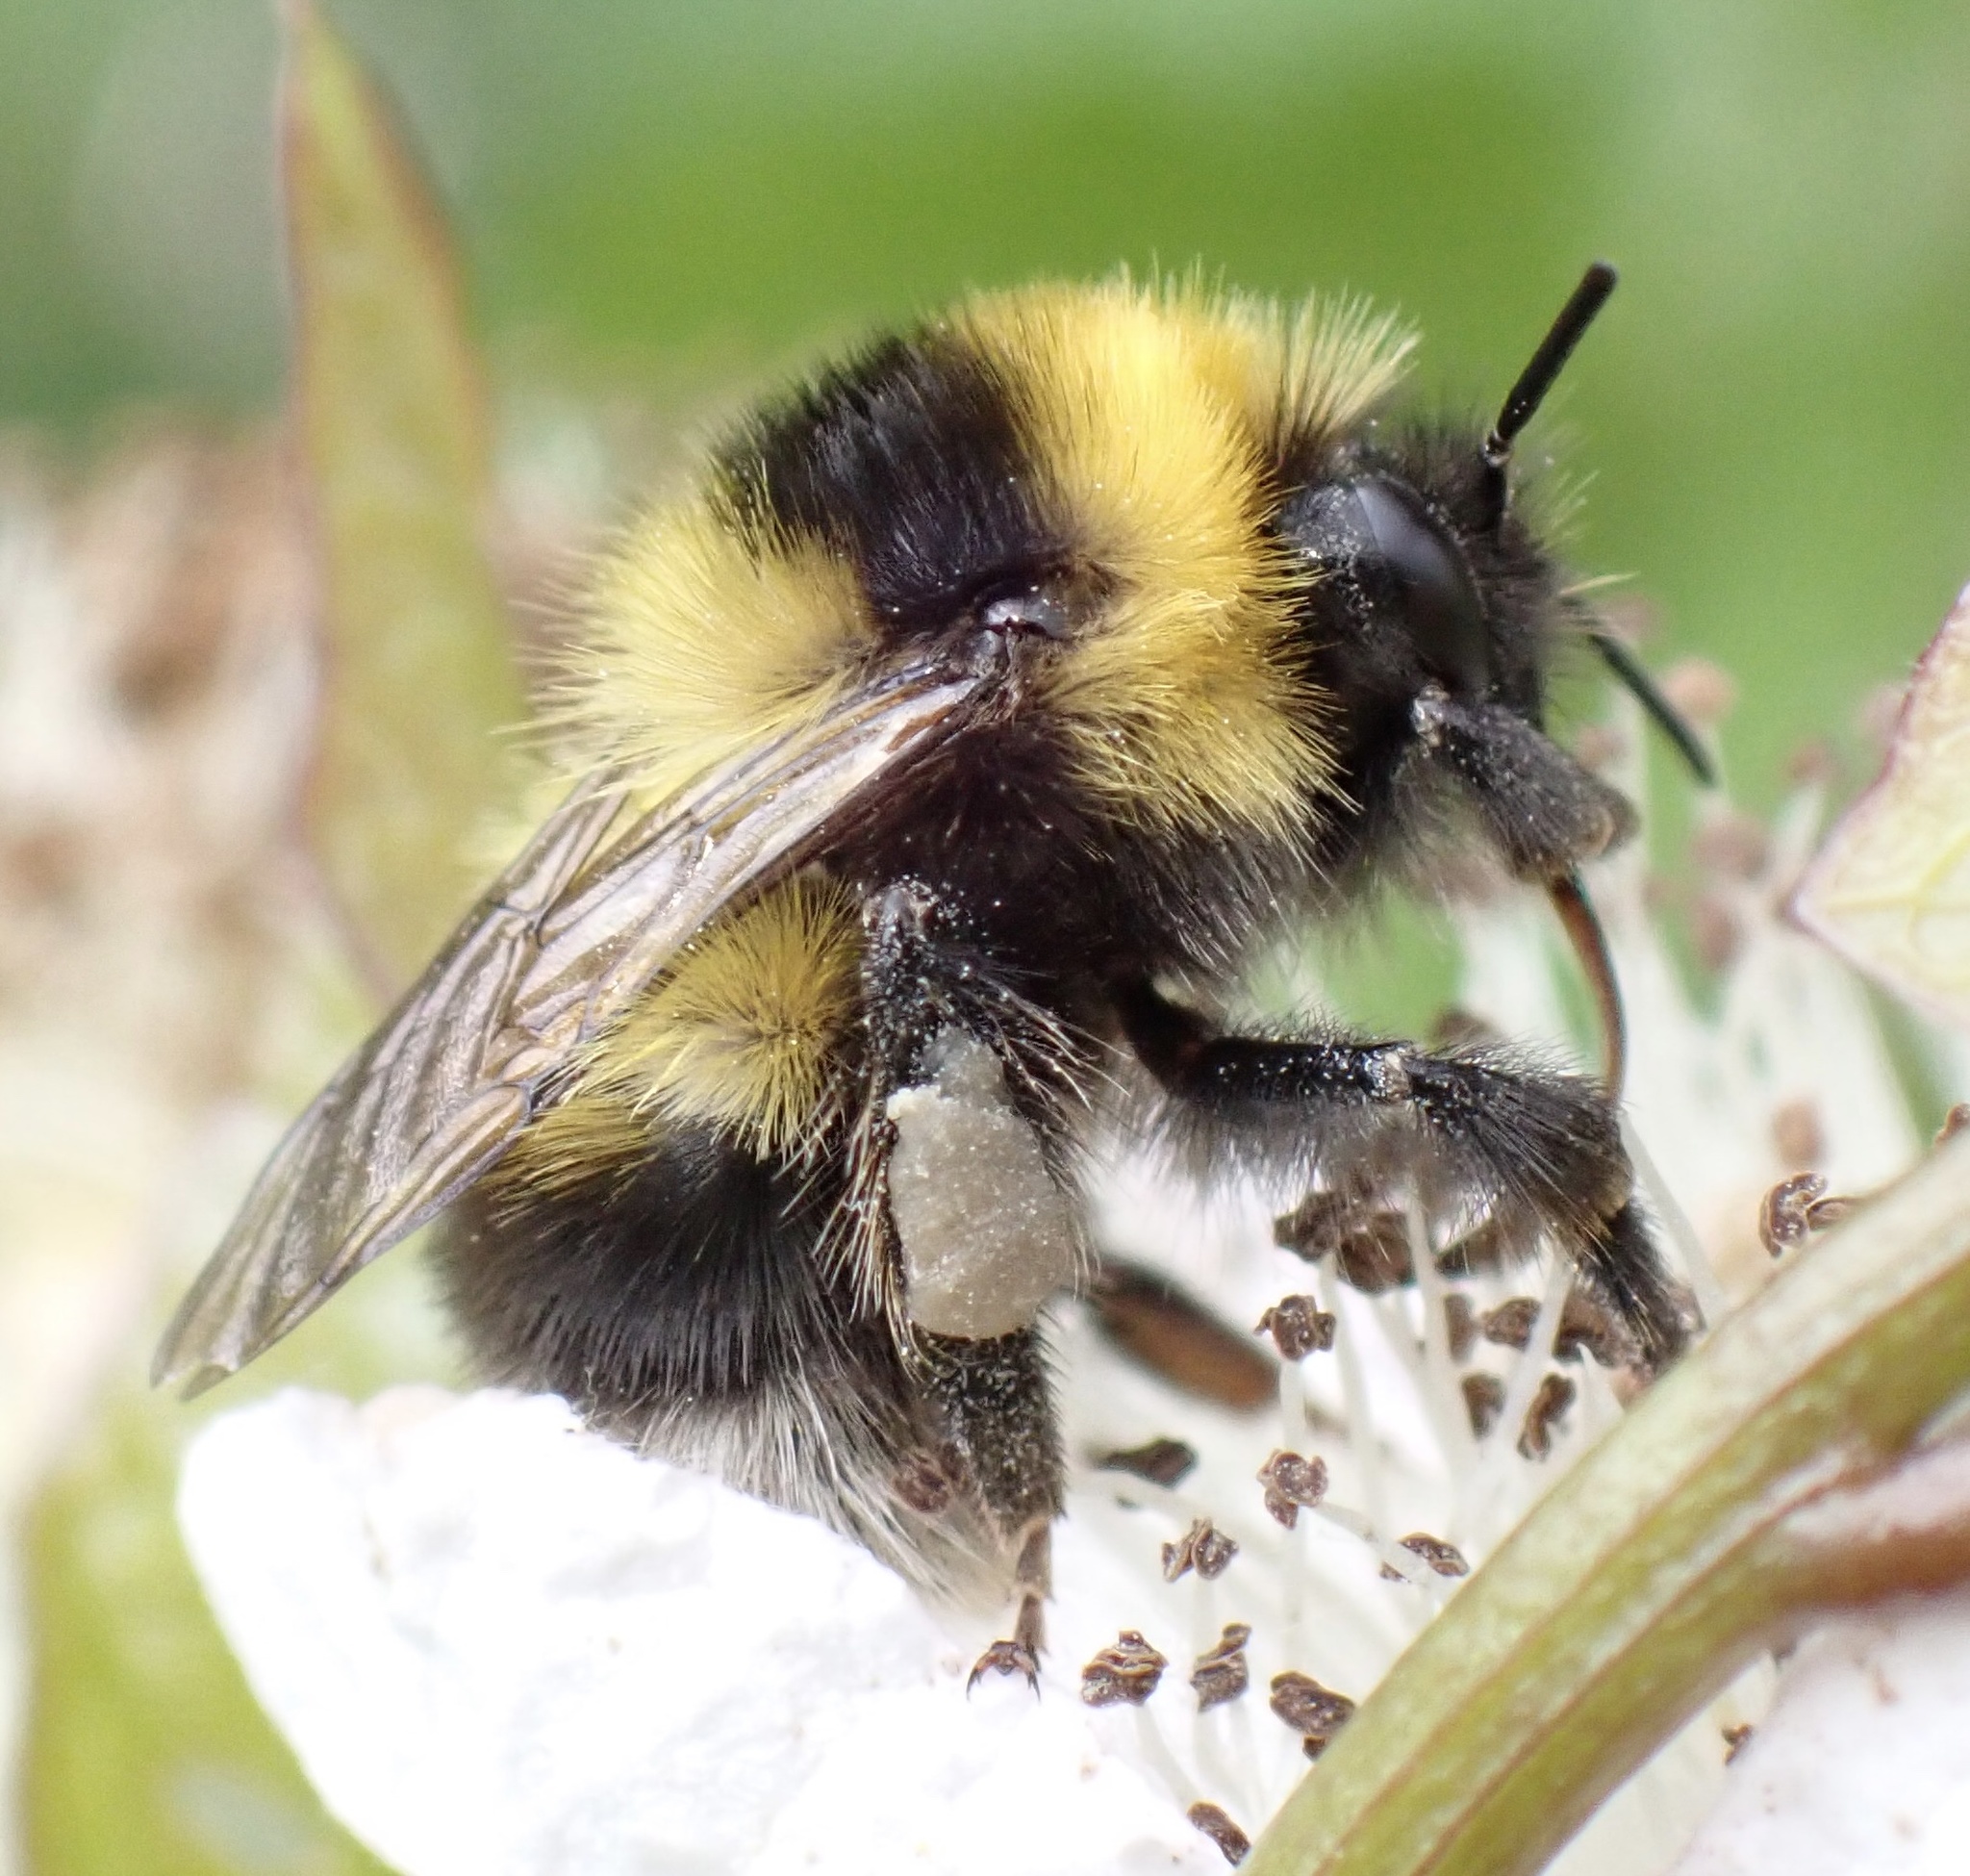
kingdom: Animalia
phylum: Arthropoda
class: Insecta
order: Hymenoptera
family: Apidae
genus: Bombus
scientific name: Bombus jonellus
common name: Heath humble-bee
